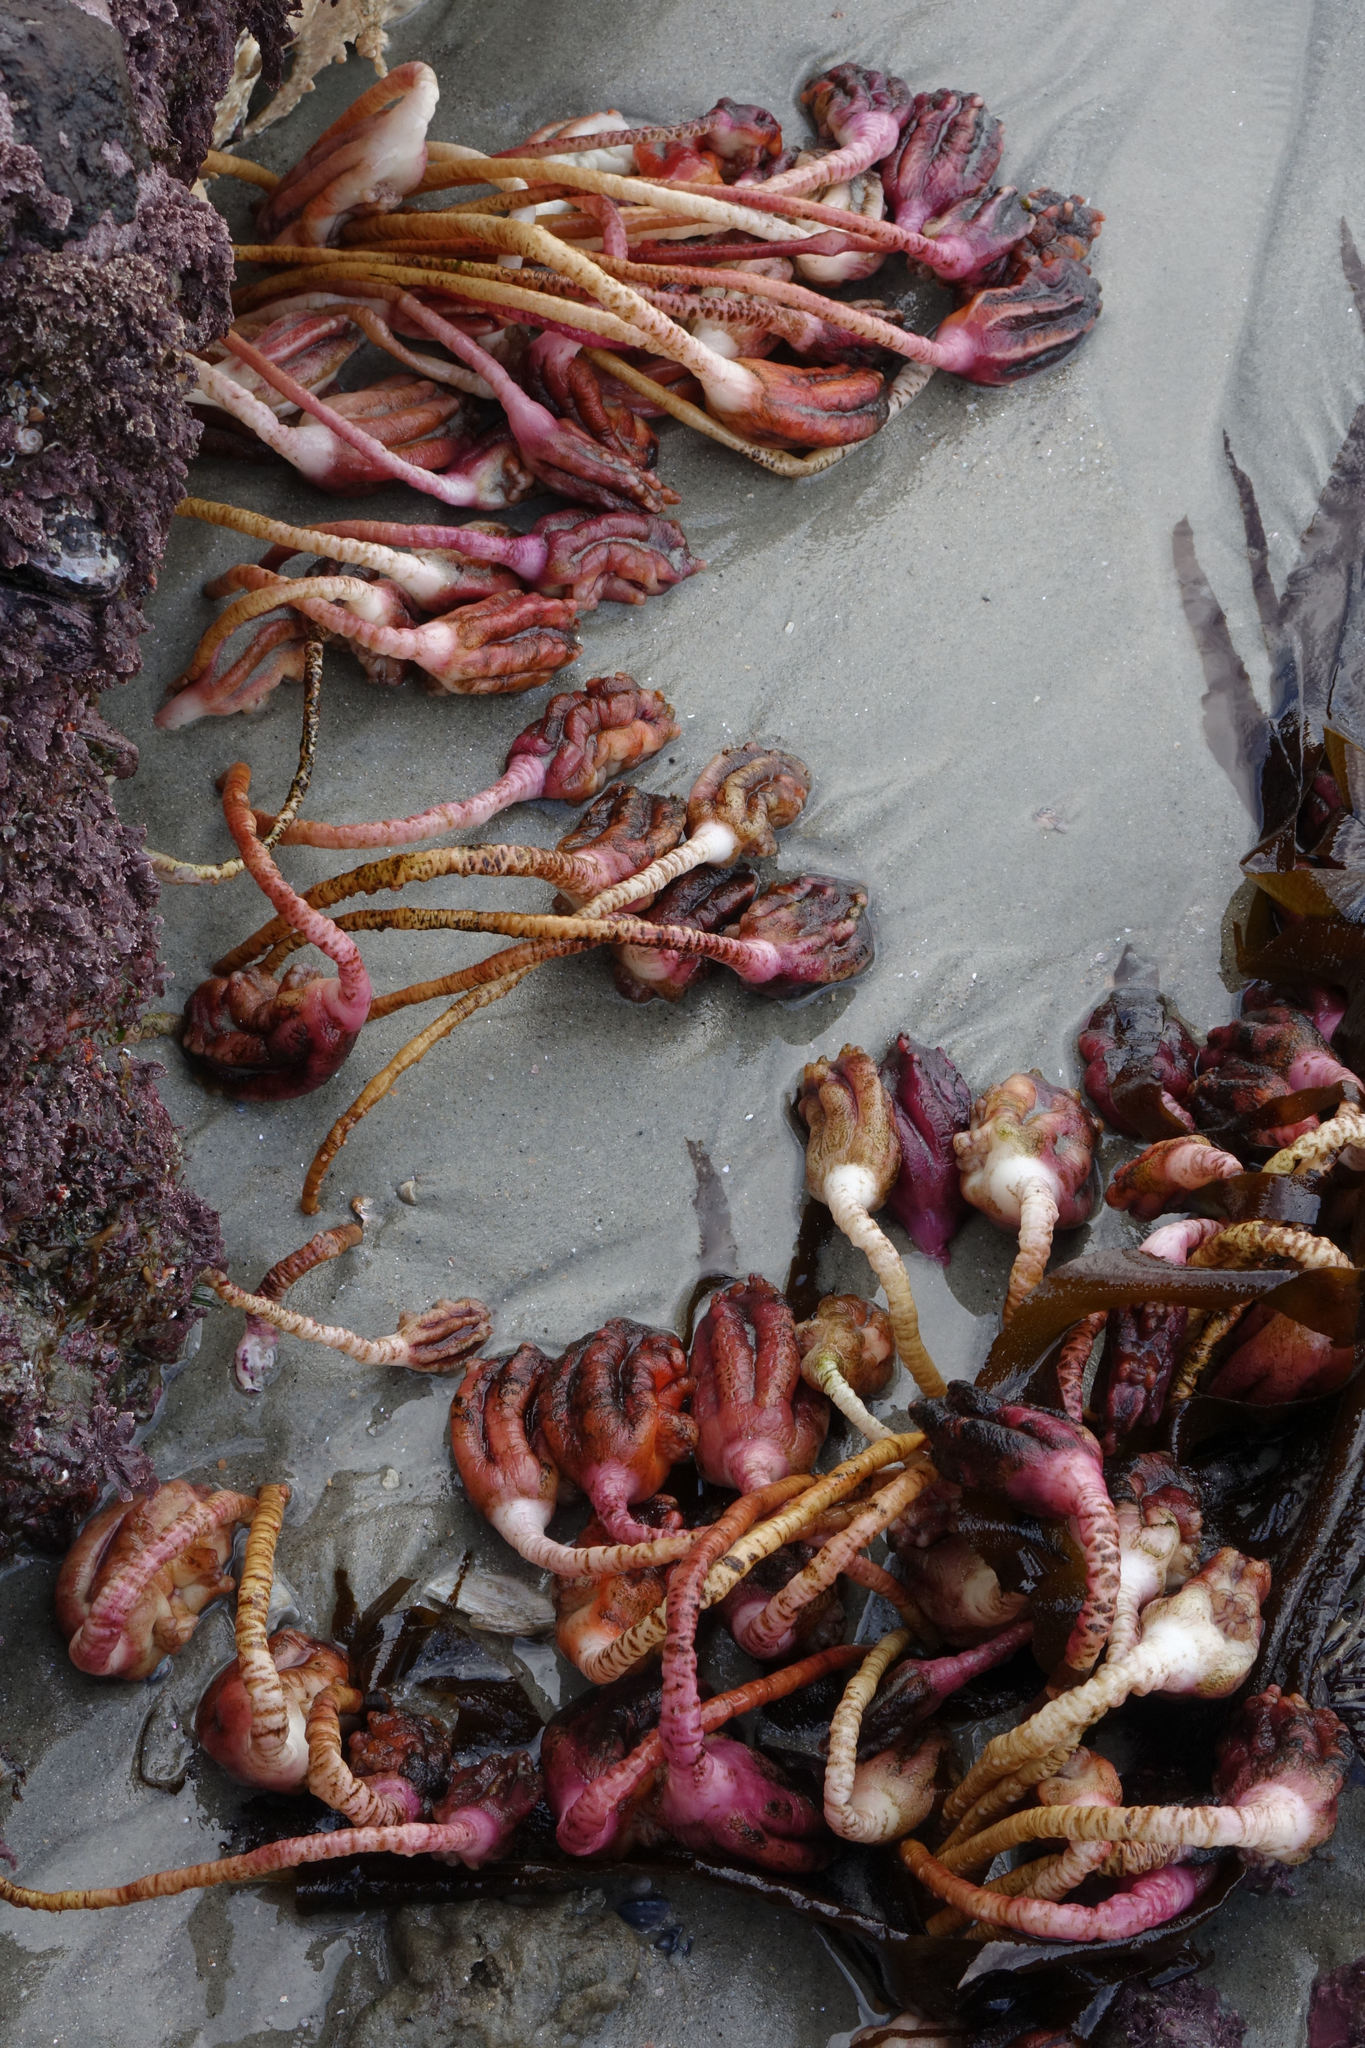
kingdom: Animalia
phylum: Chordata
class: Ascidiacea
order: Stolidobranchia
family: Pyuridae
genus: Pyura
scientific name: Pyura pachydermatina
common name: Sea tulip
